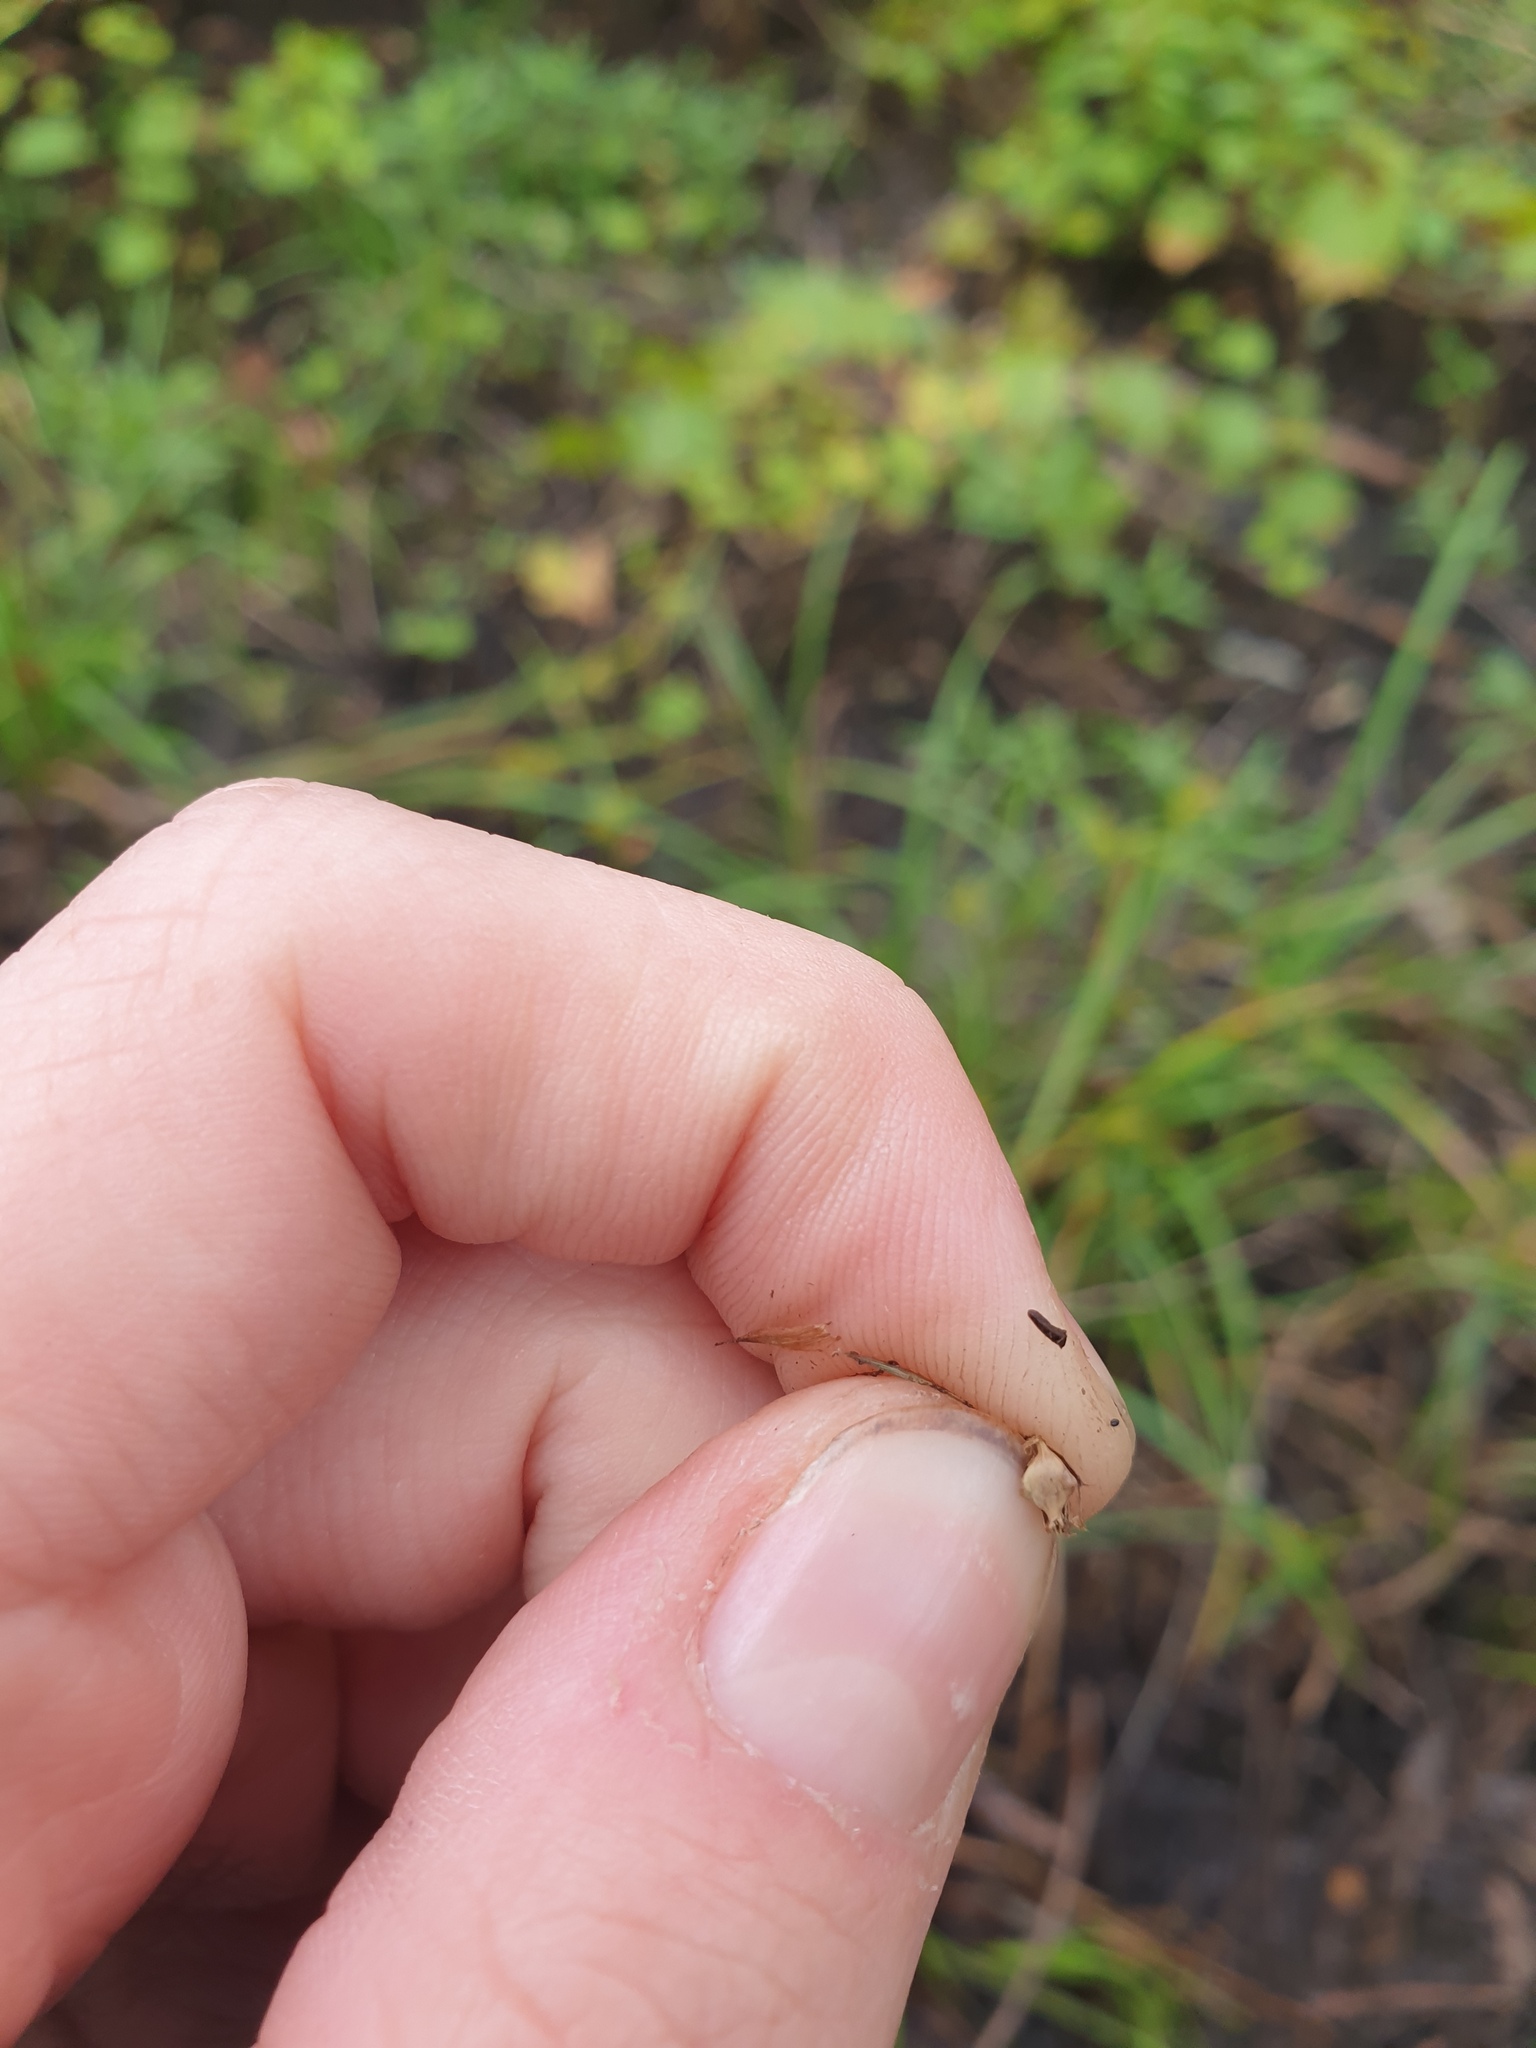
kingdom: Plantae
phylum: Tracheophyta
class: Liliopsida
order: Poales
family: Cyperaceae
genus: Carex
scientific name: Carex lupuliformis
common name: False hop sedge
